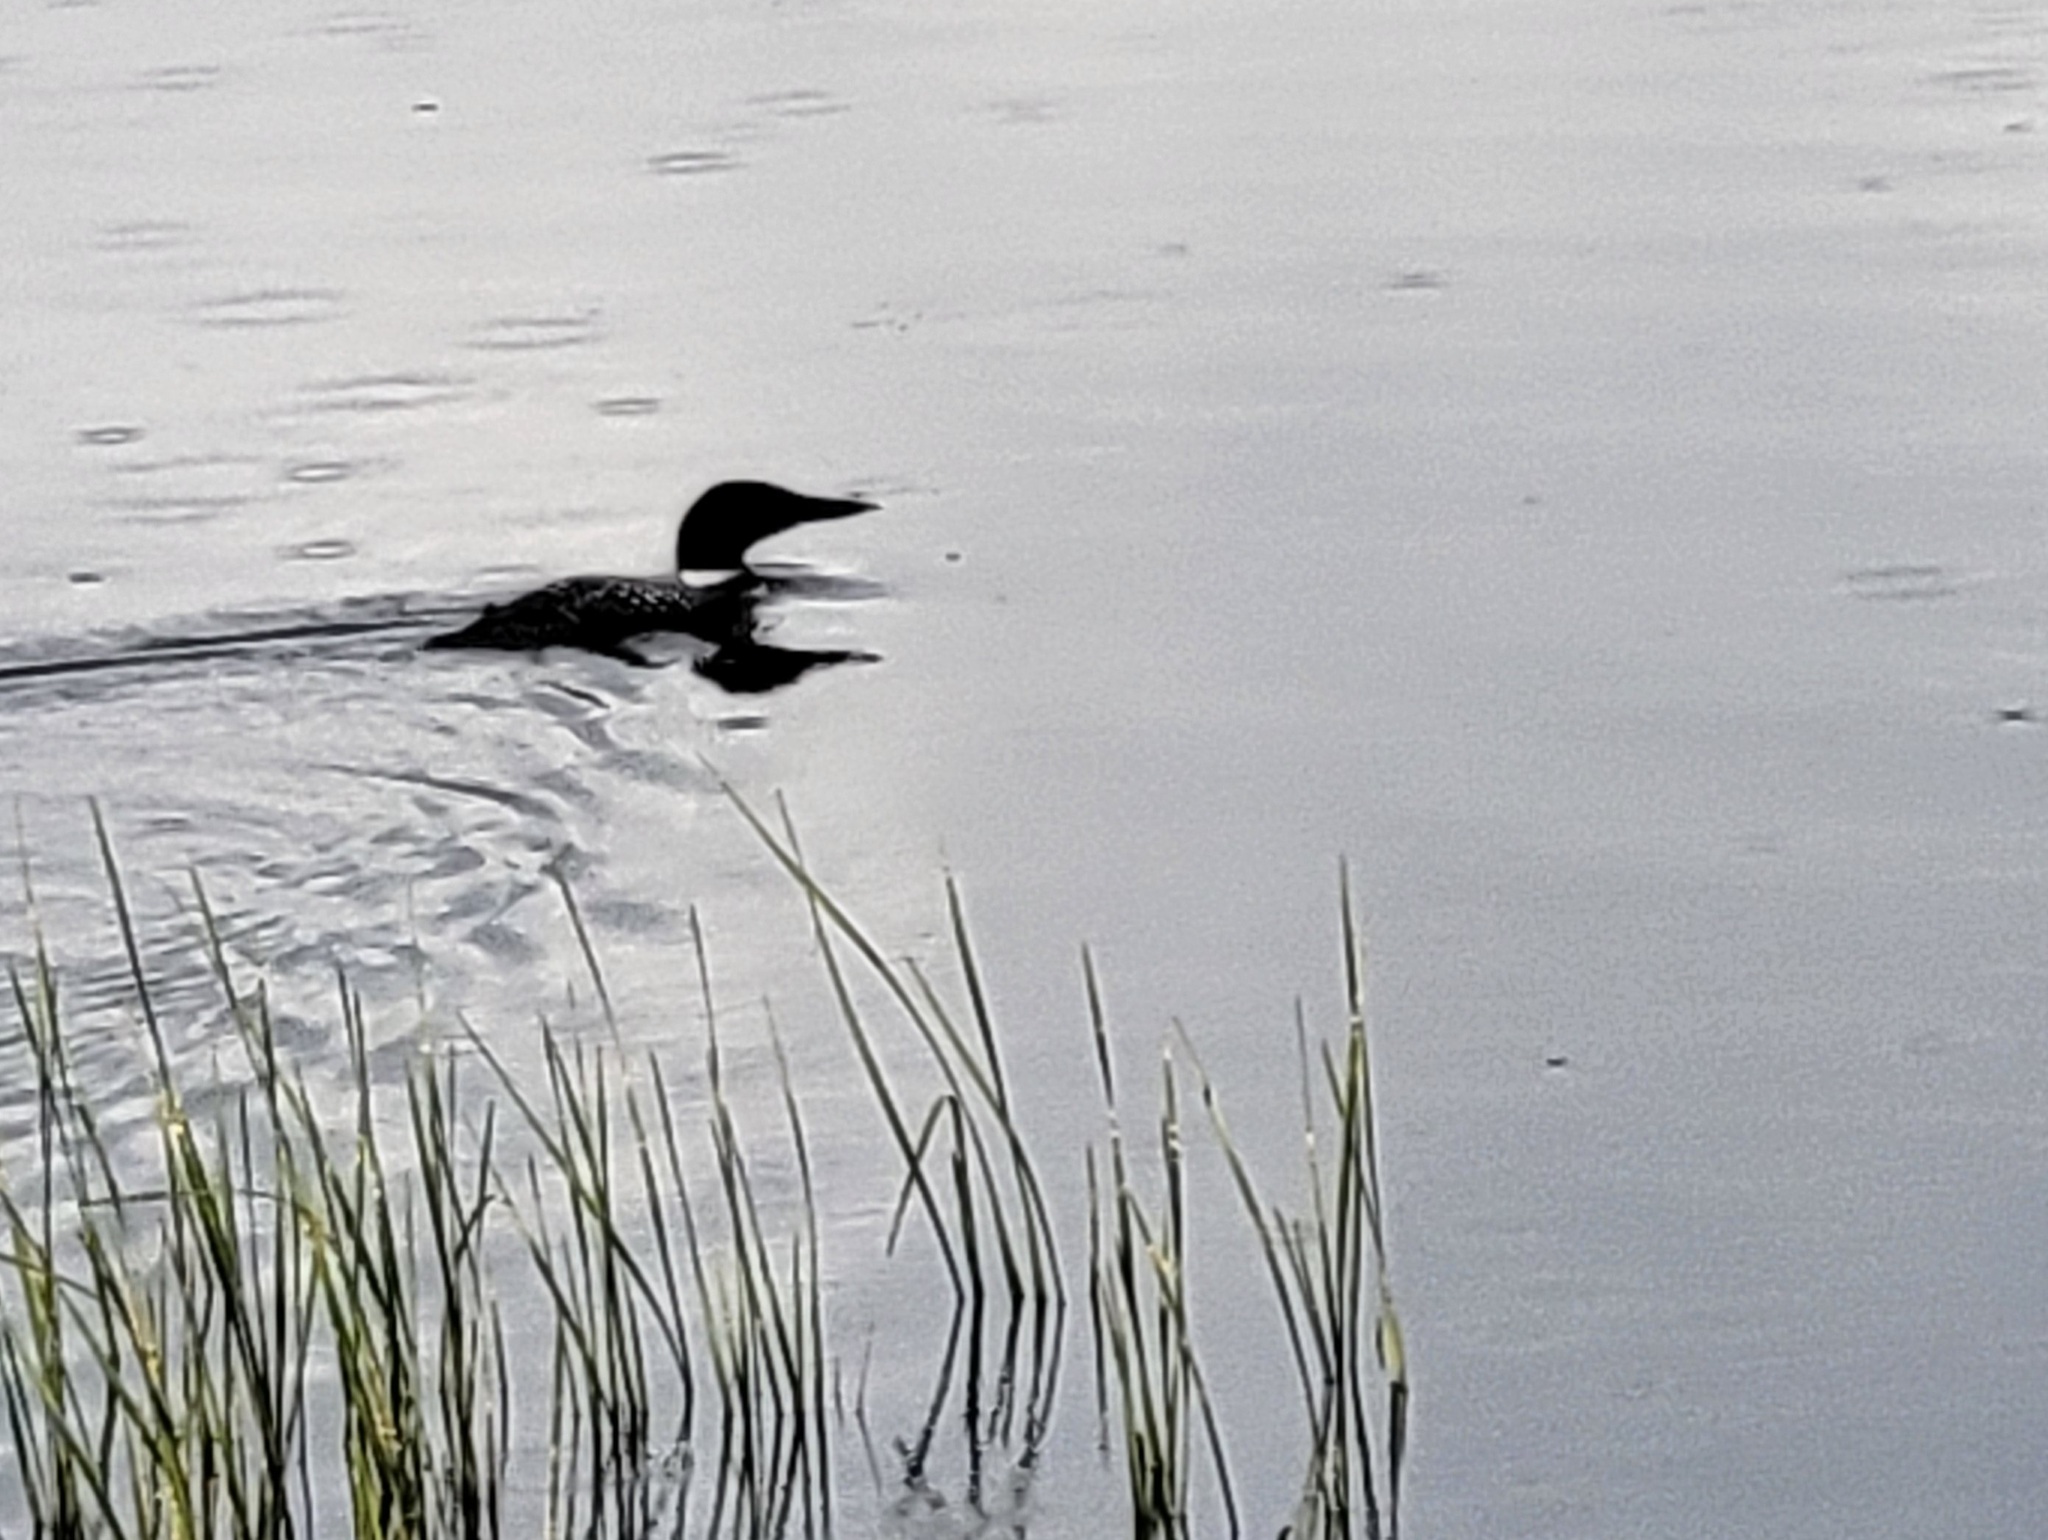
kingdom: Animalia
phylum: Chordata
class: Aves
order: Gaviiformes
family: Gaviidae
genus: Gavia
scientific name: Gavia immer
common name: Common loon
